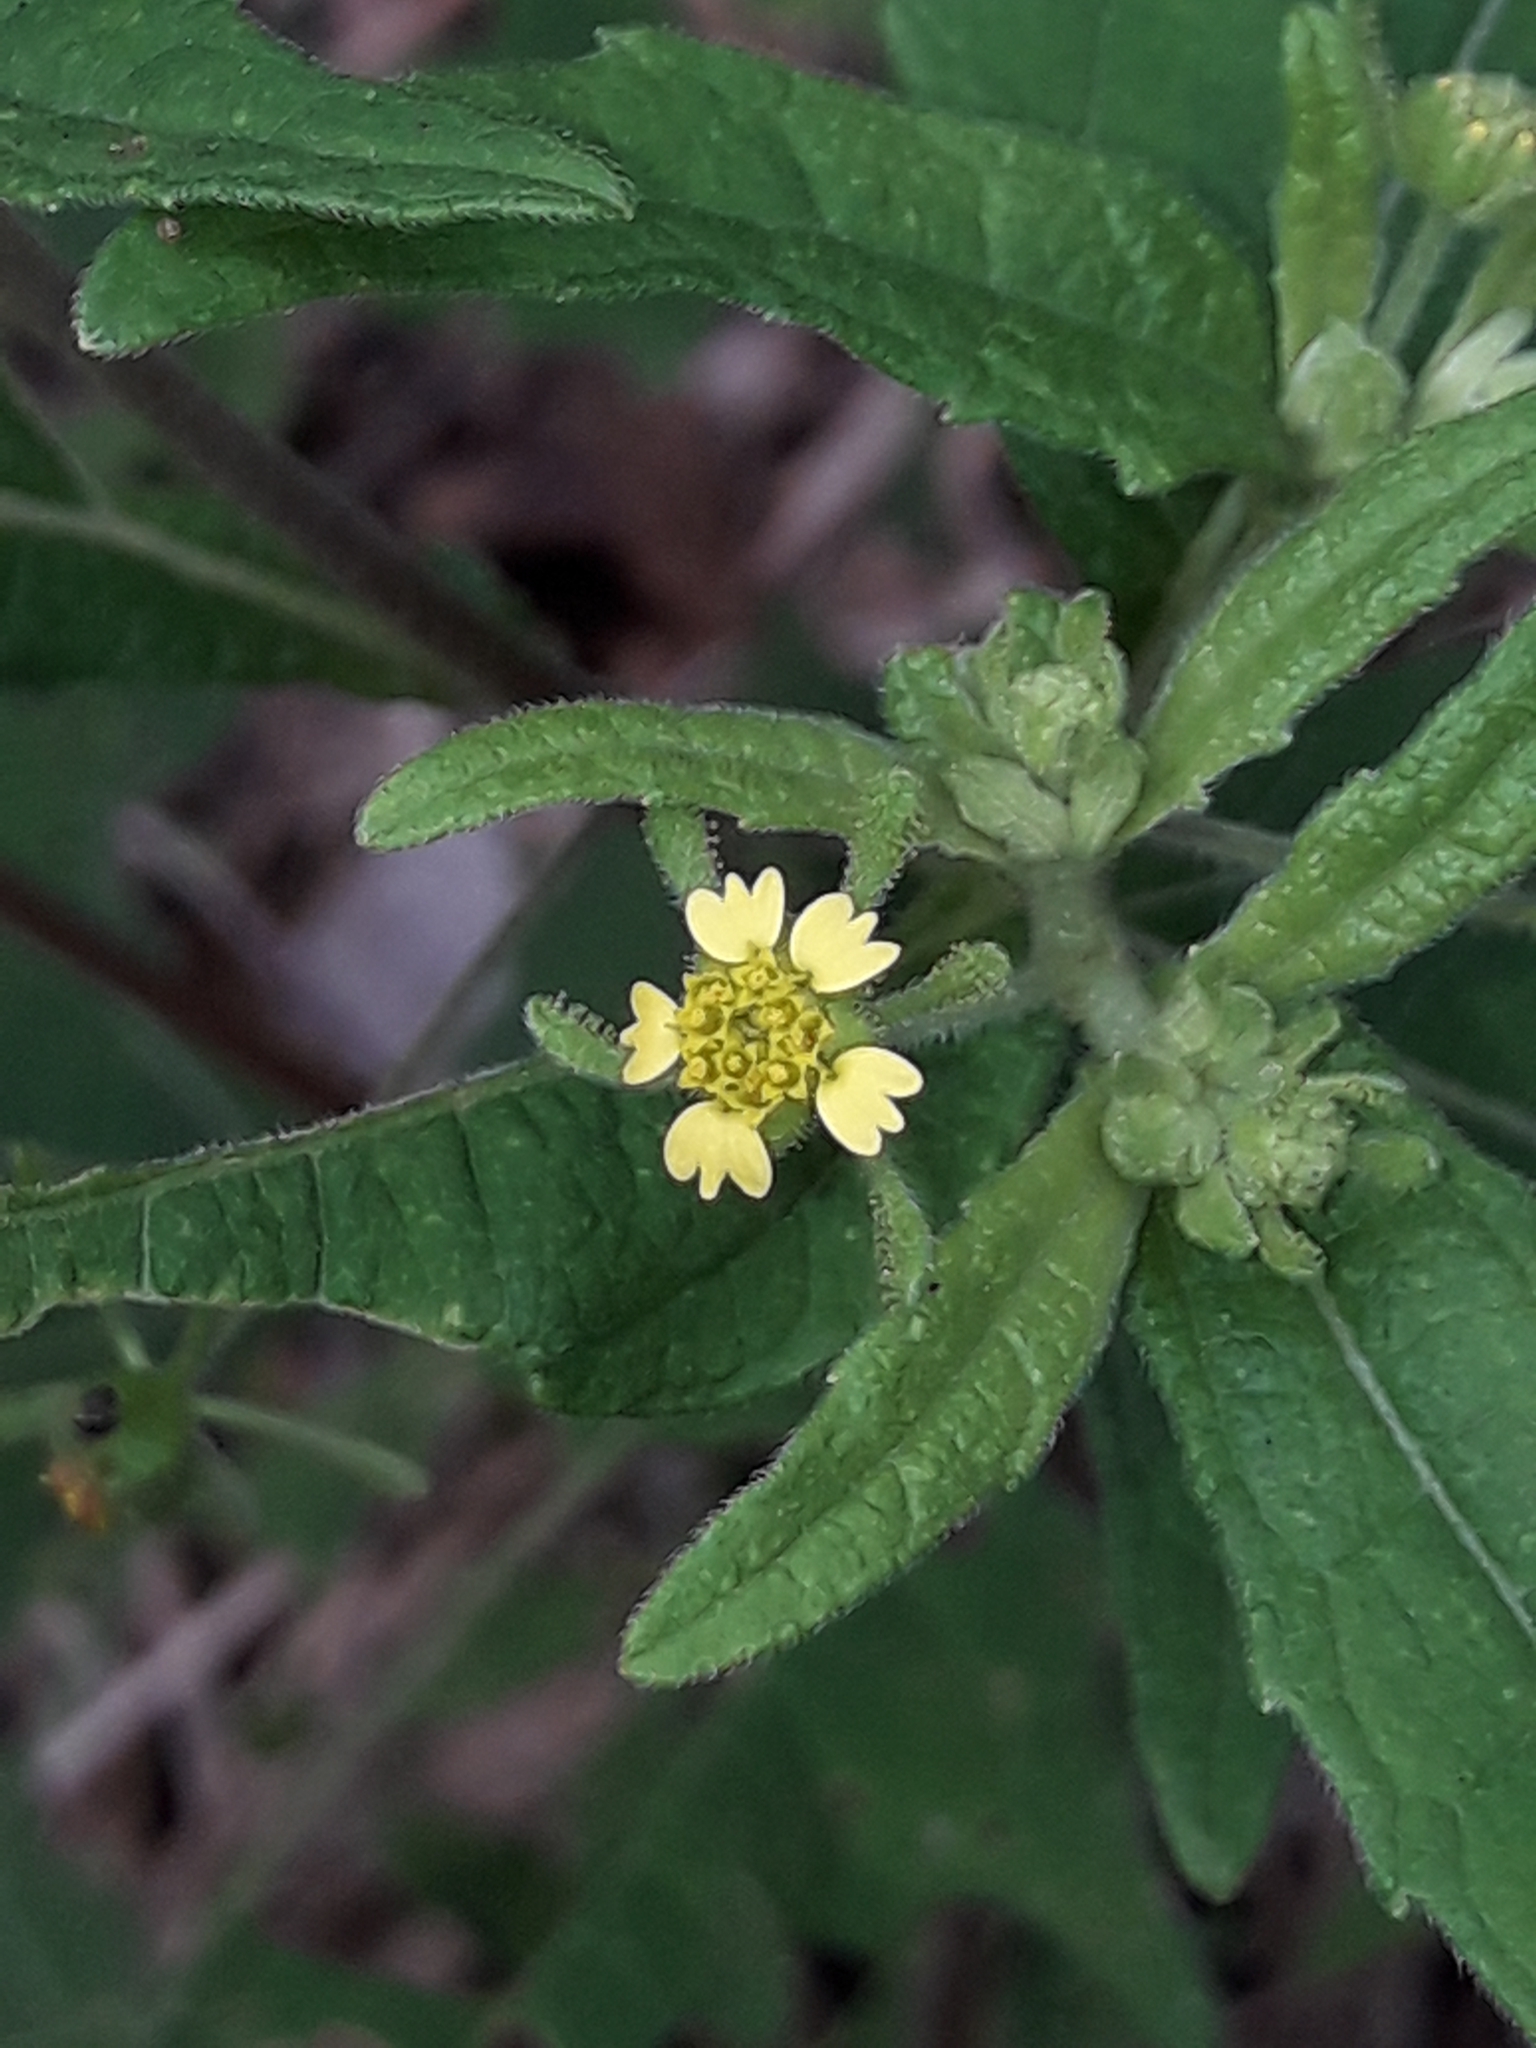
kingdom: Plantae
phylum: Tracheophyta
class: Magnoliopsida
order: Asterales
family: Asteraceae
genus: Sigesbeckia
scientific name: Sigesbeckia orientalis
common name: Eastern st paul's-wort
